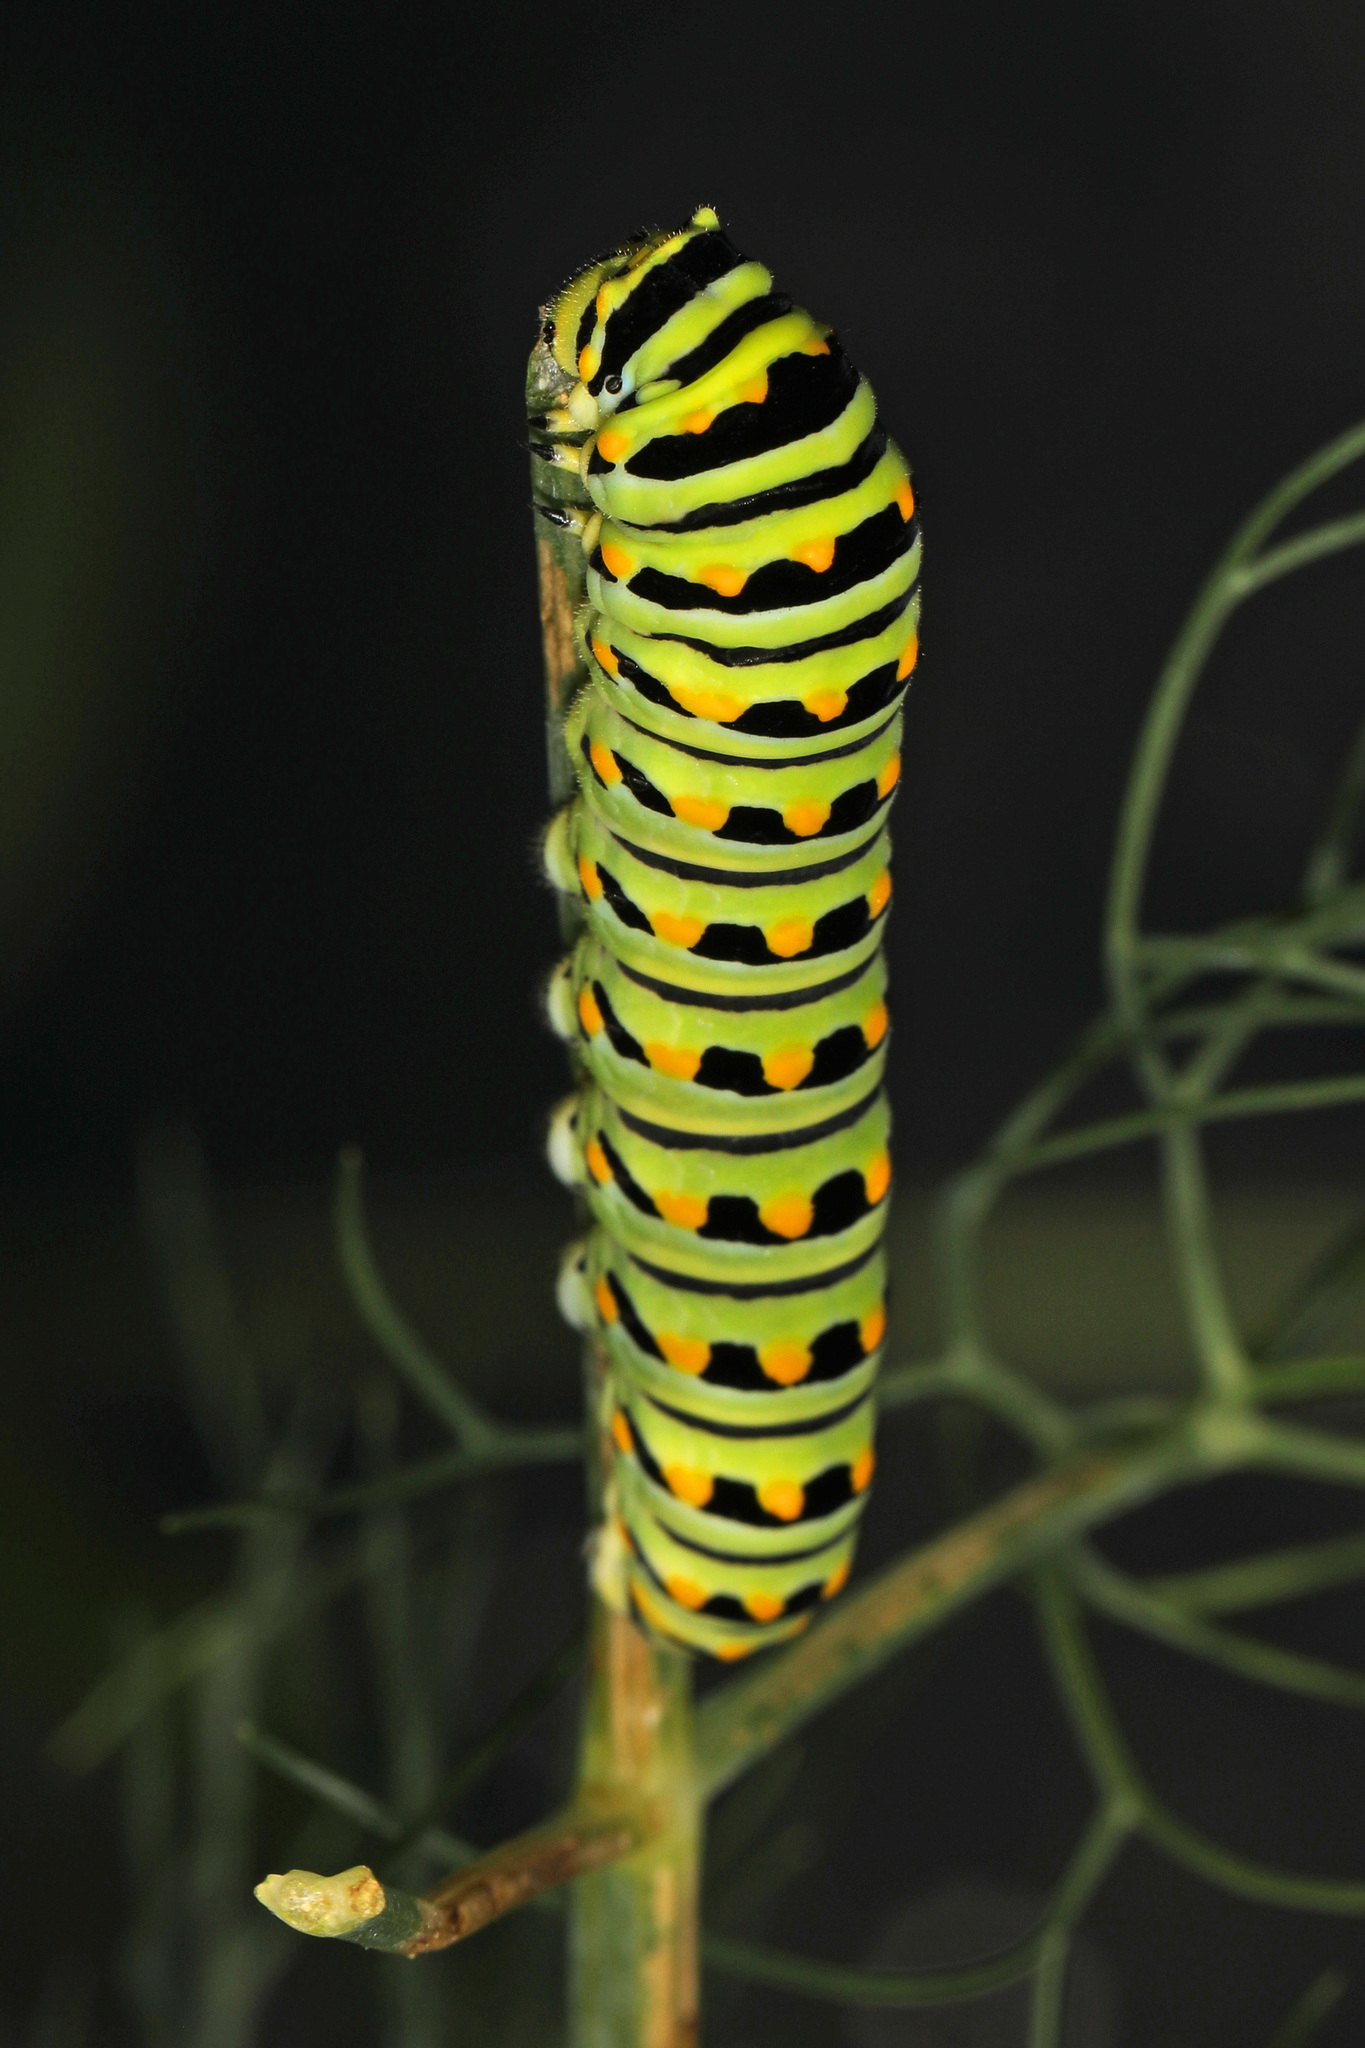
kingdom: Animalia
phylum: Arthropoda
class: Insecta
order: Lepidoptera
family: Papilionidae
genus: Papilio
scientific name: Papilio polyxenes
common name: Black swallowtail
